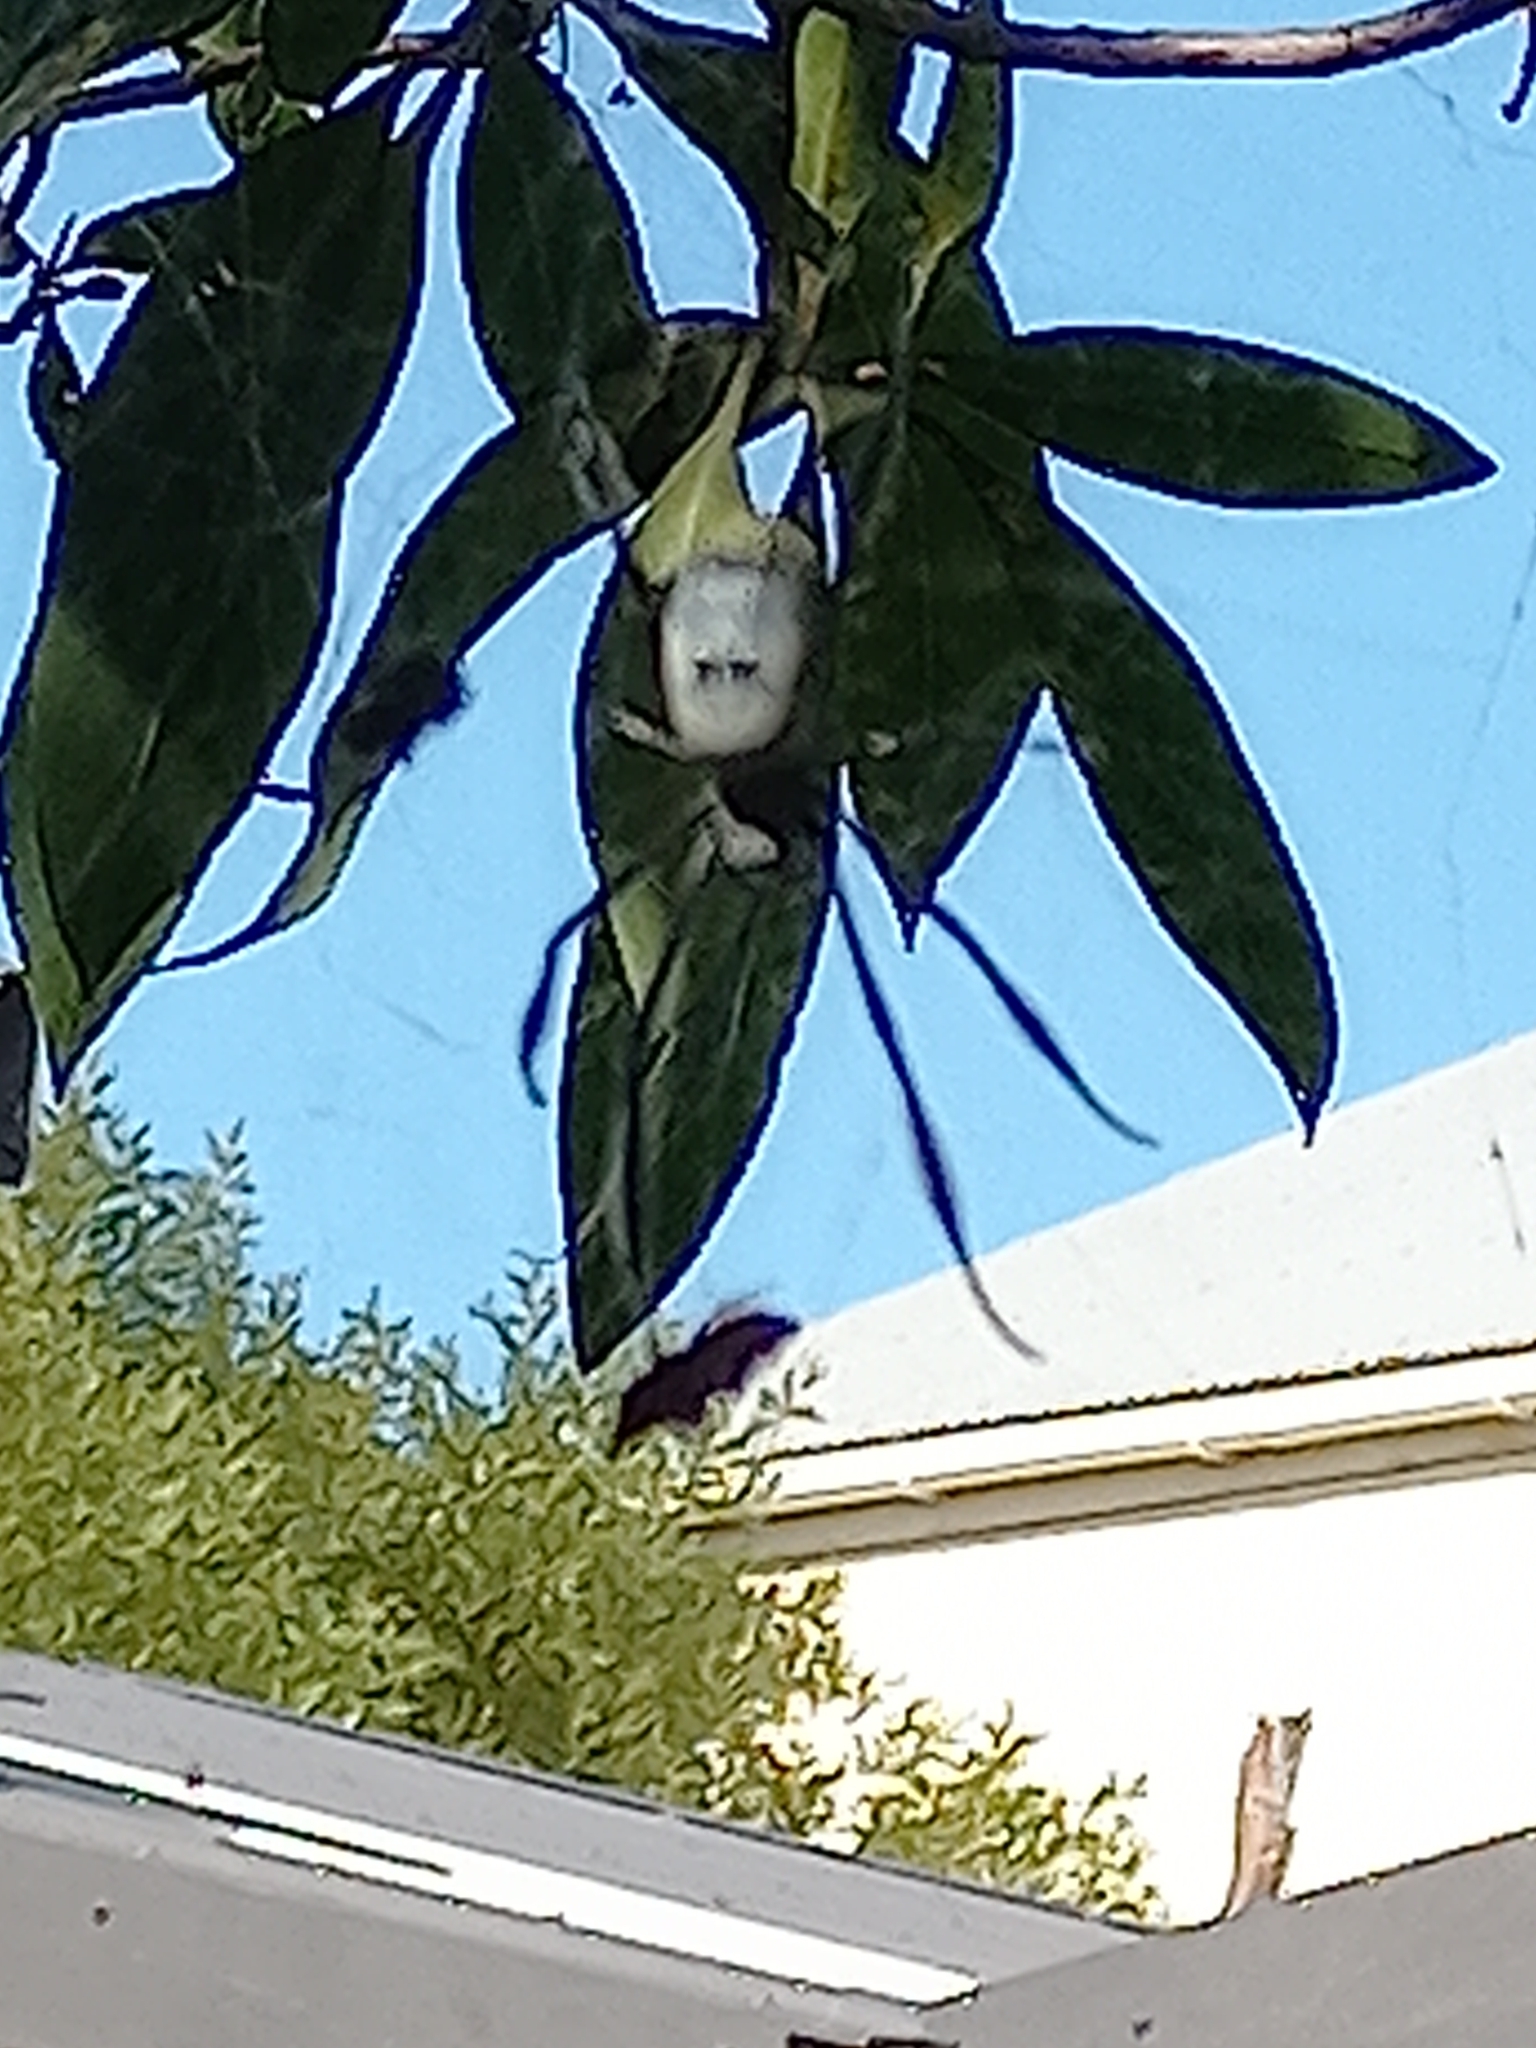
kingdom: Animalia
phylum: Arthropoda
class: Arachnida
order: Araneae
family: Araneidae
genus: Trichonephila
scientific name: Trichonephila fenestrata
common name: Hairy golden orb weaver
